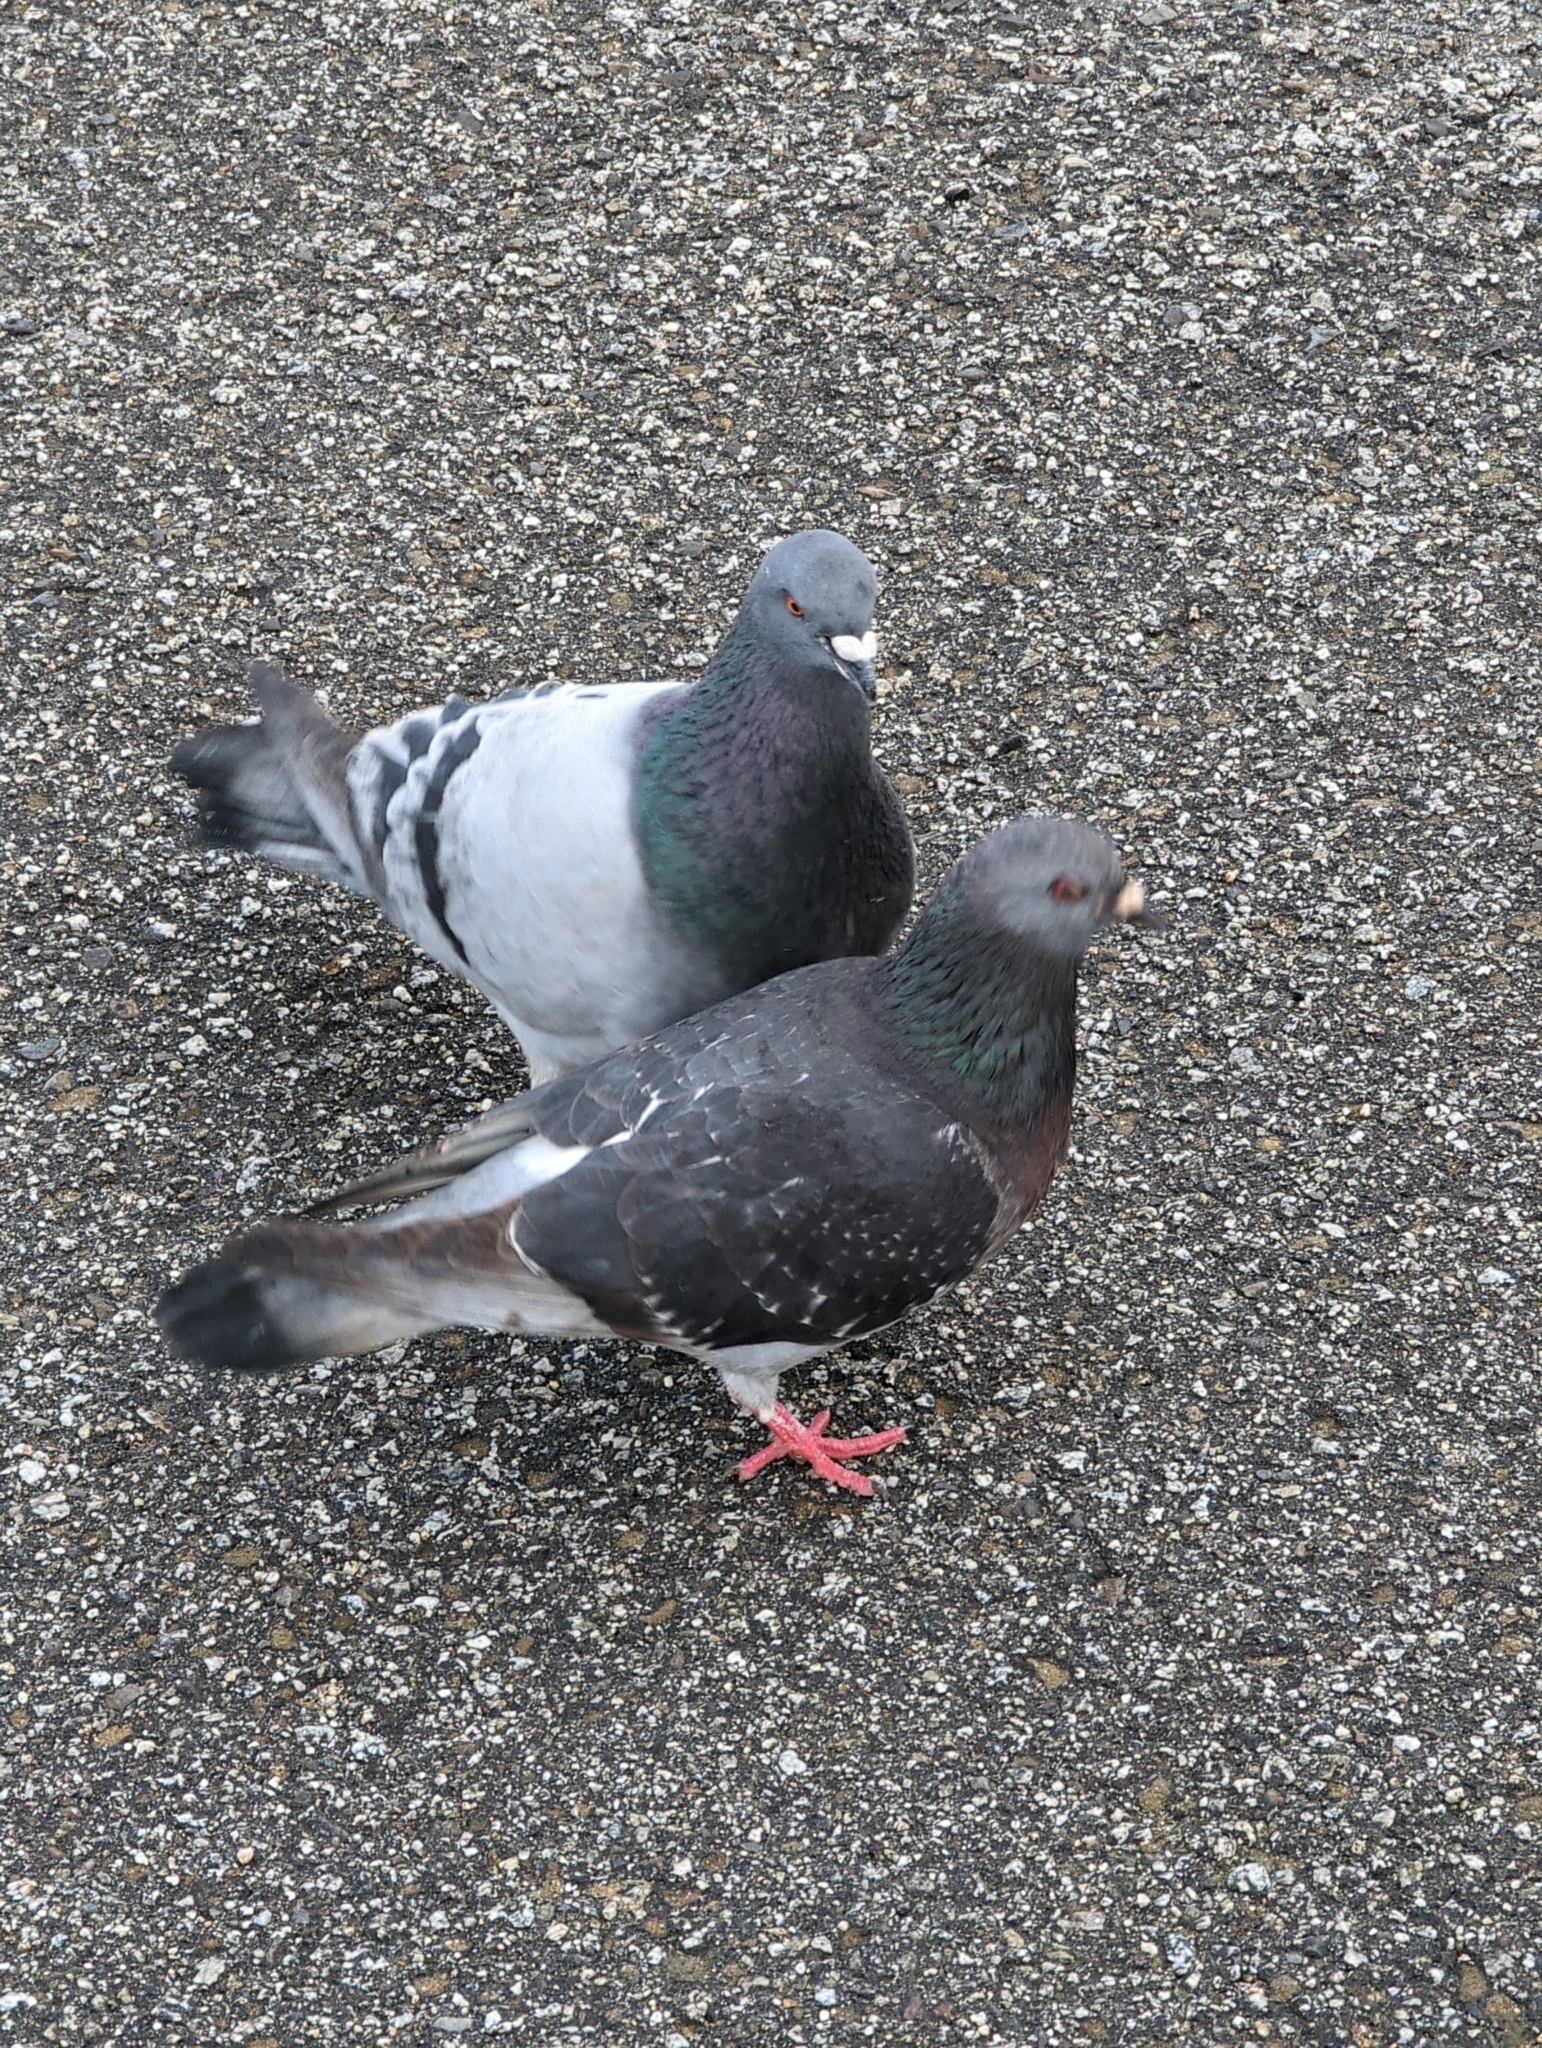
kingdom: Animalia
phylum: Chordata
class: Aves
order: Columbiformes
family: Columbidae
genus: Columba
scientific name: Columba livia
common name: Rock pigeon
